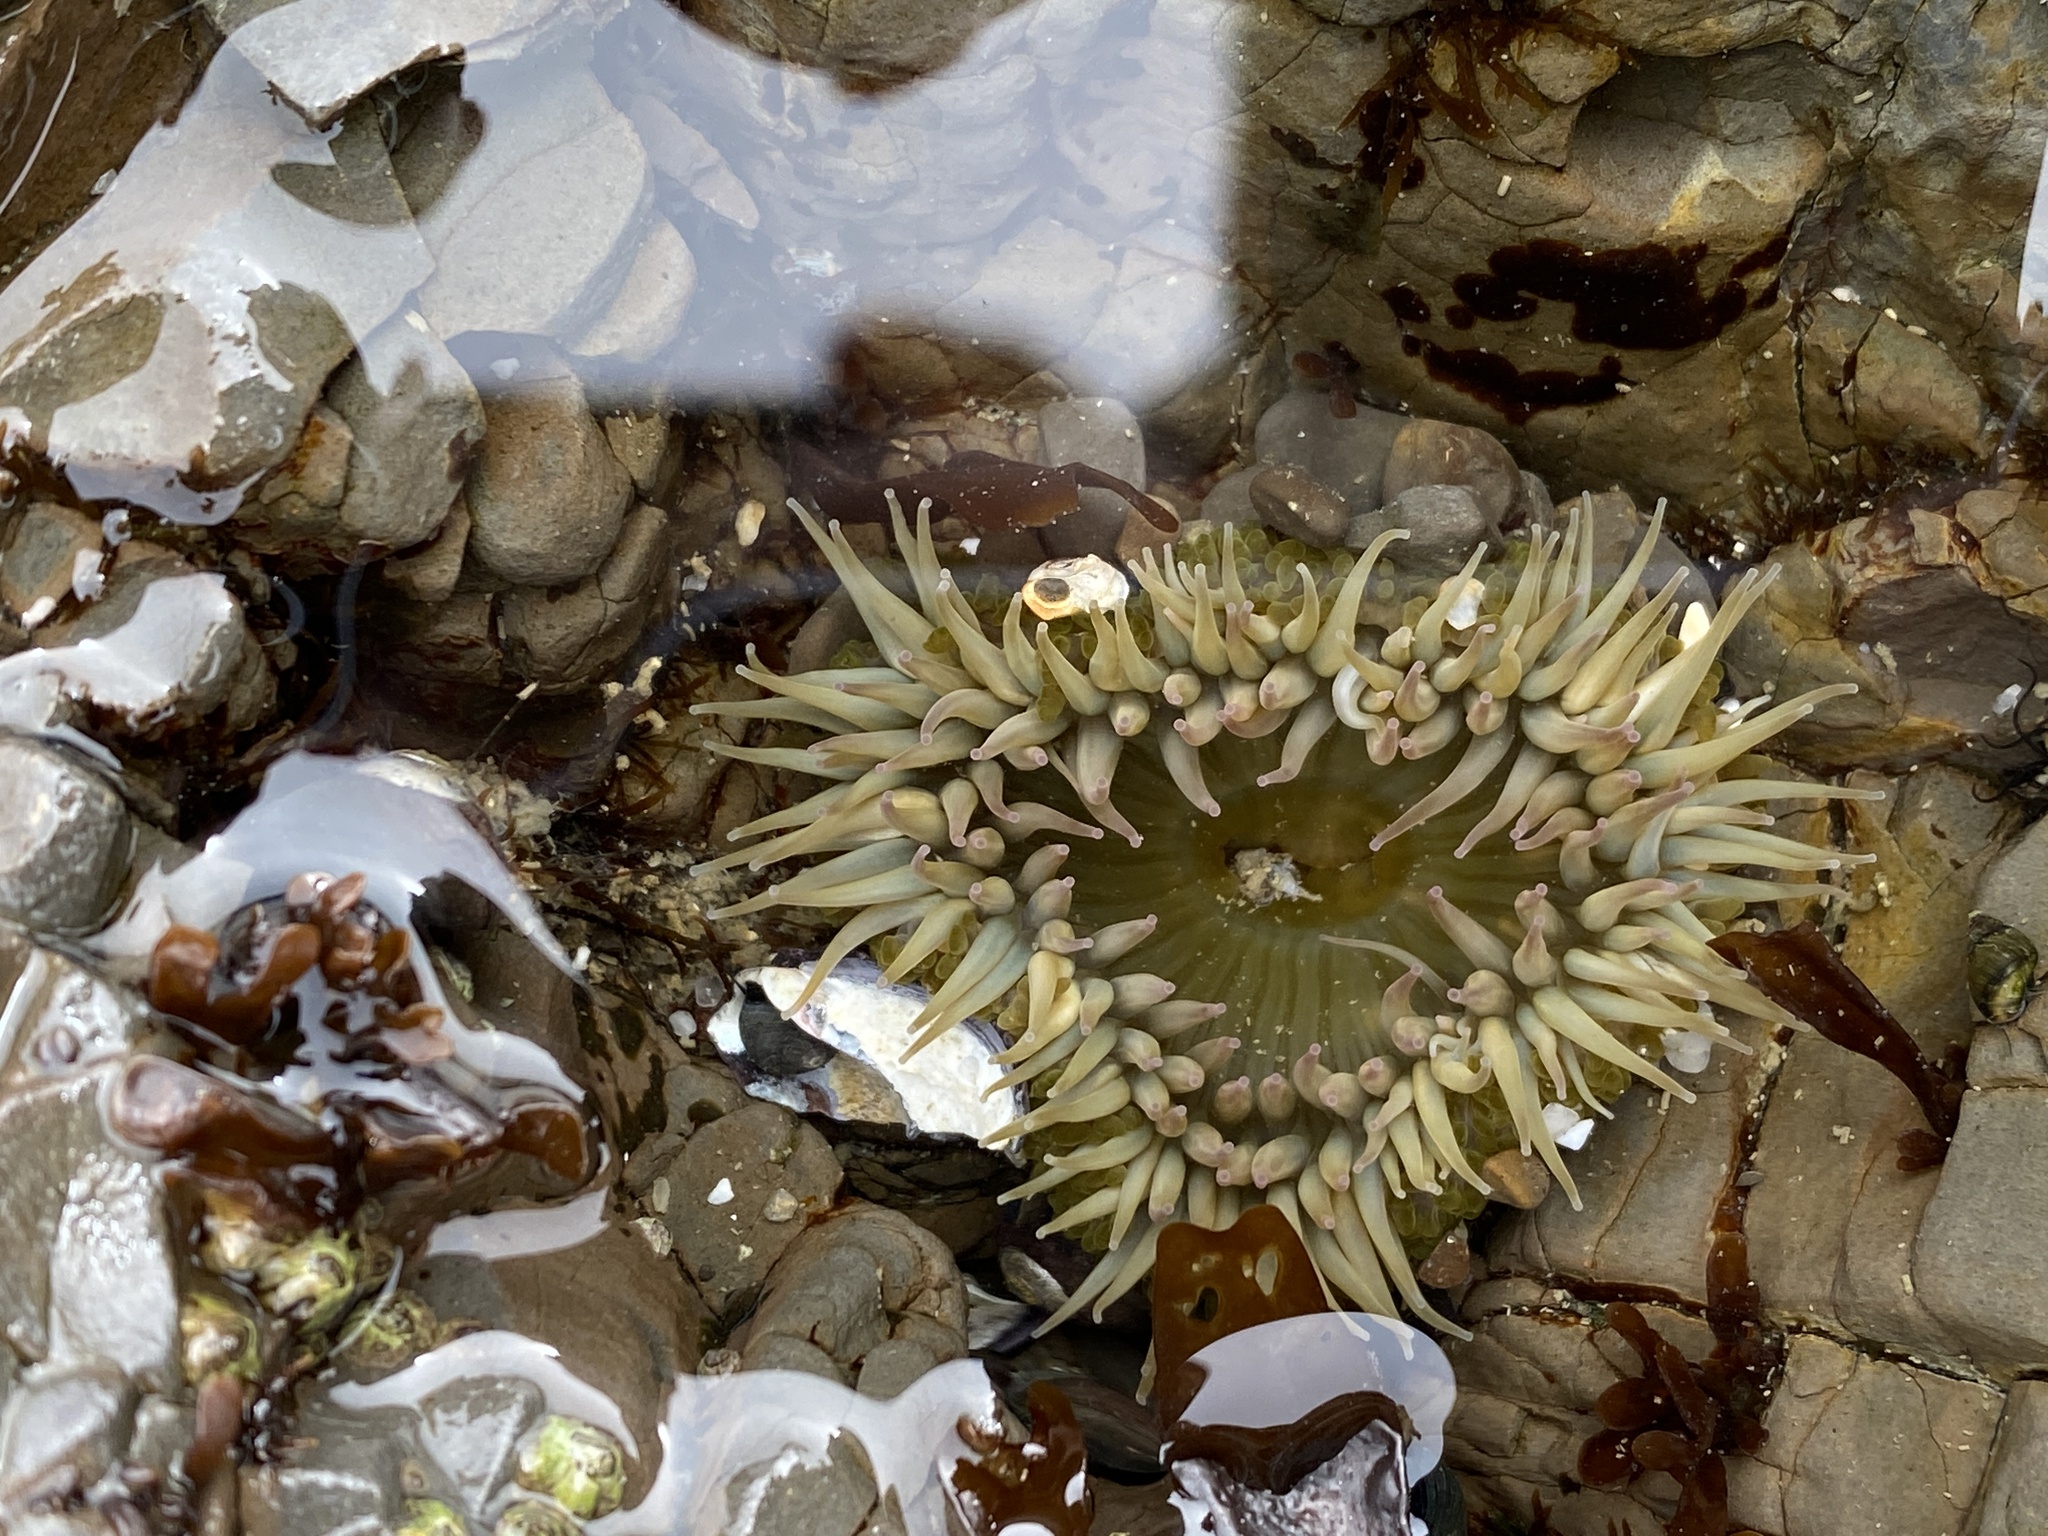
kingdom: Animalia
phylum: Cnidaria
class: Anthozoa
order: Actiniaria
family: Actiniidae
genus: Anthopleura
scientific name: Anthopleura elegantissima
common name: Clonal anemone
